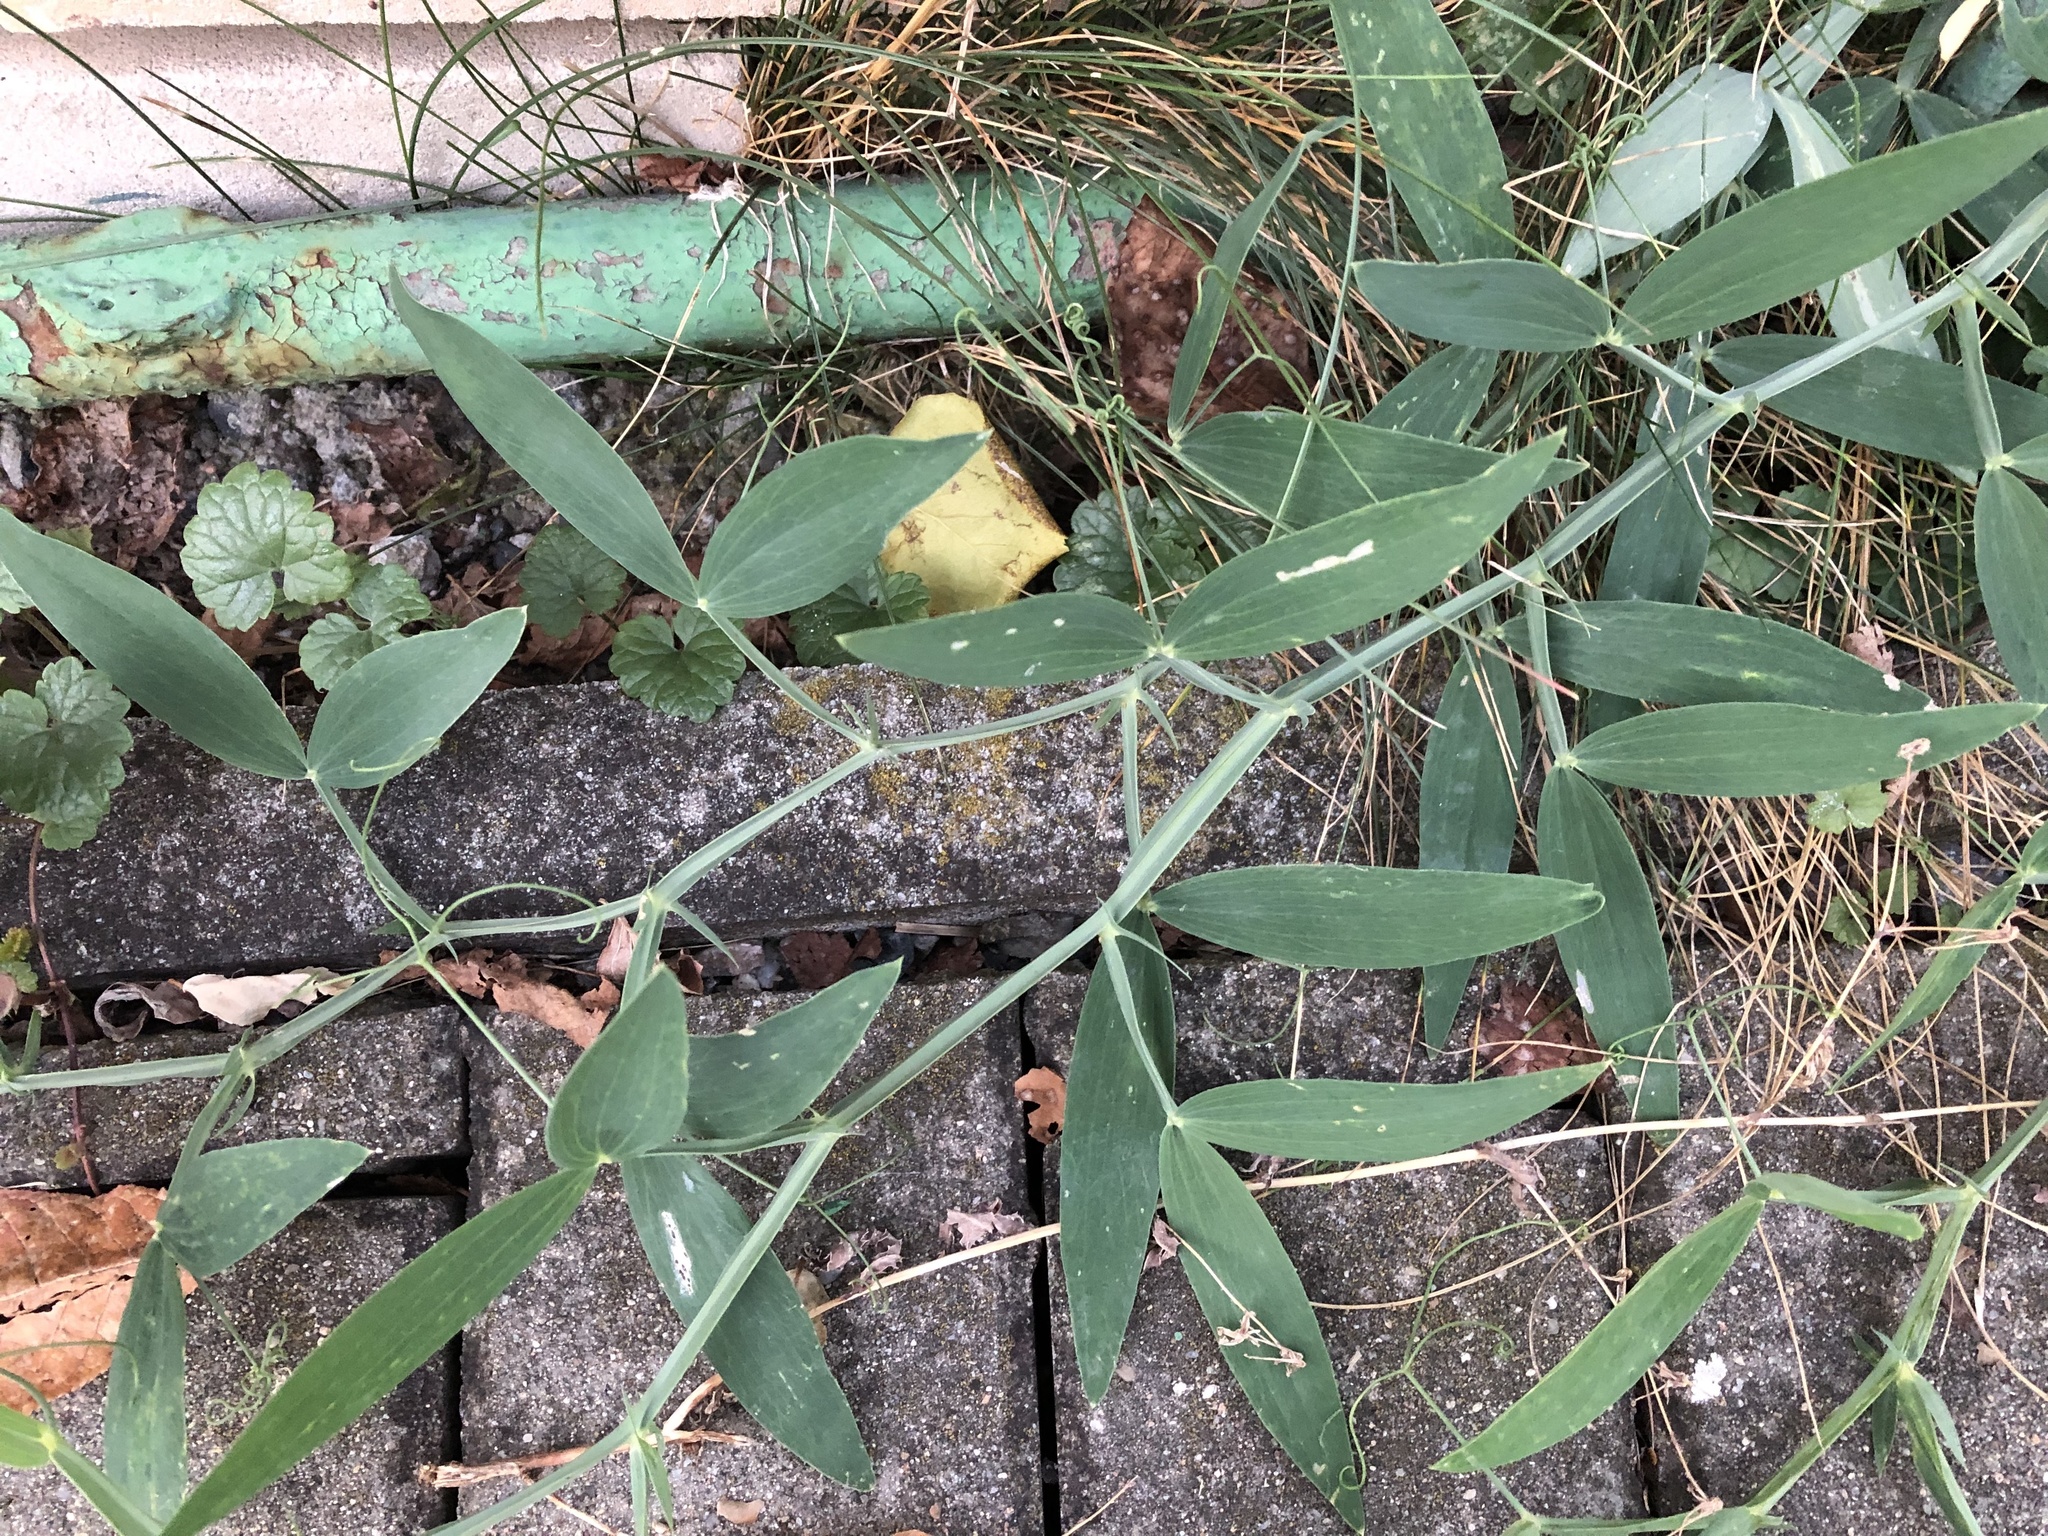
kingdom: Plantae
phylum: Tracheophyta
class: Magnoliopsida
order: Fabales
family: Fabaceae
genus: Lathyrus
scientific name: Lathyrus latifolius
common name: Perennial pea
